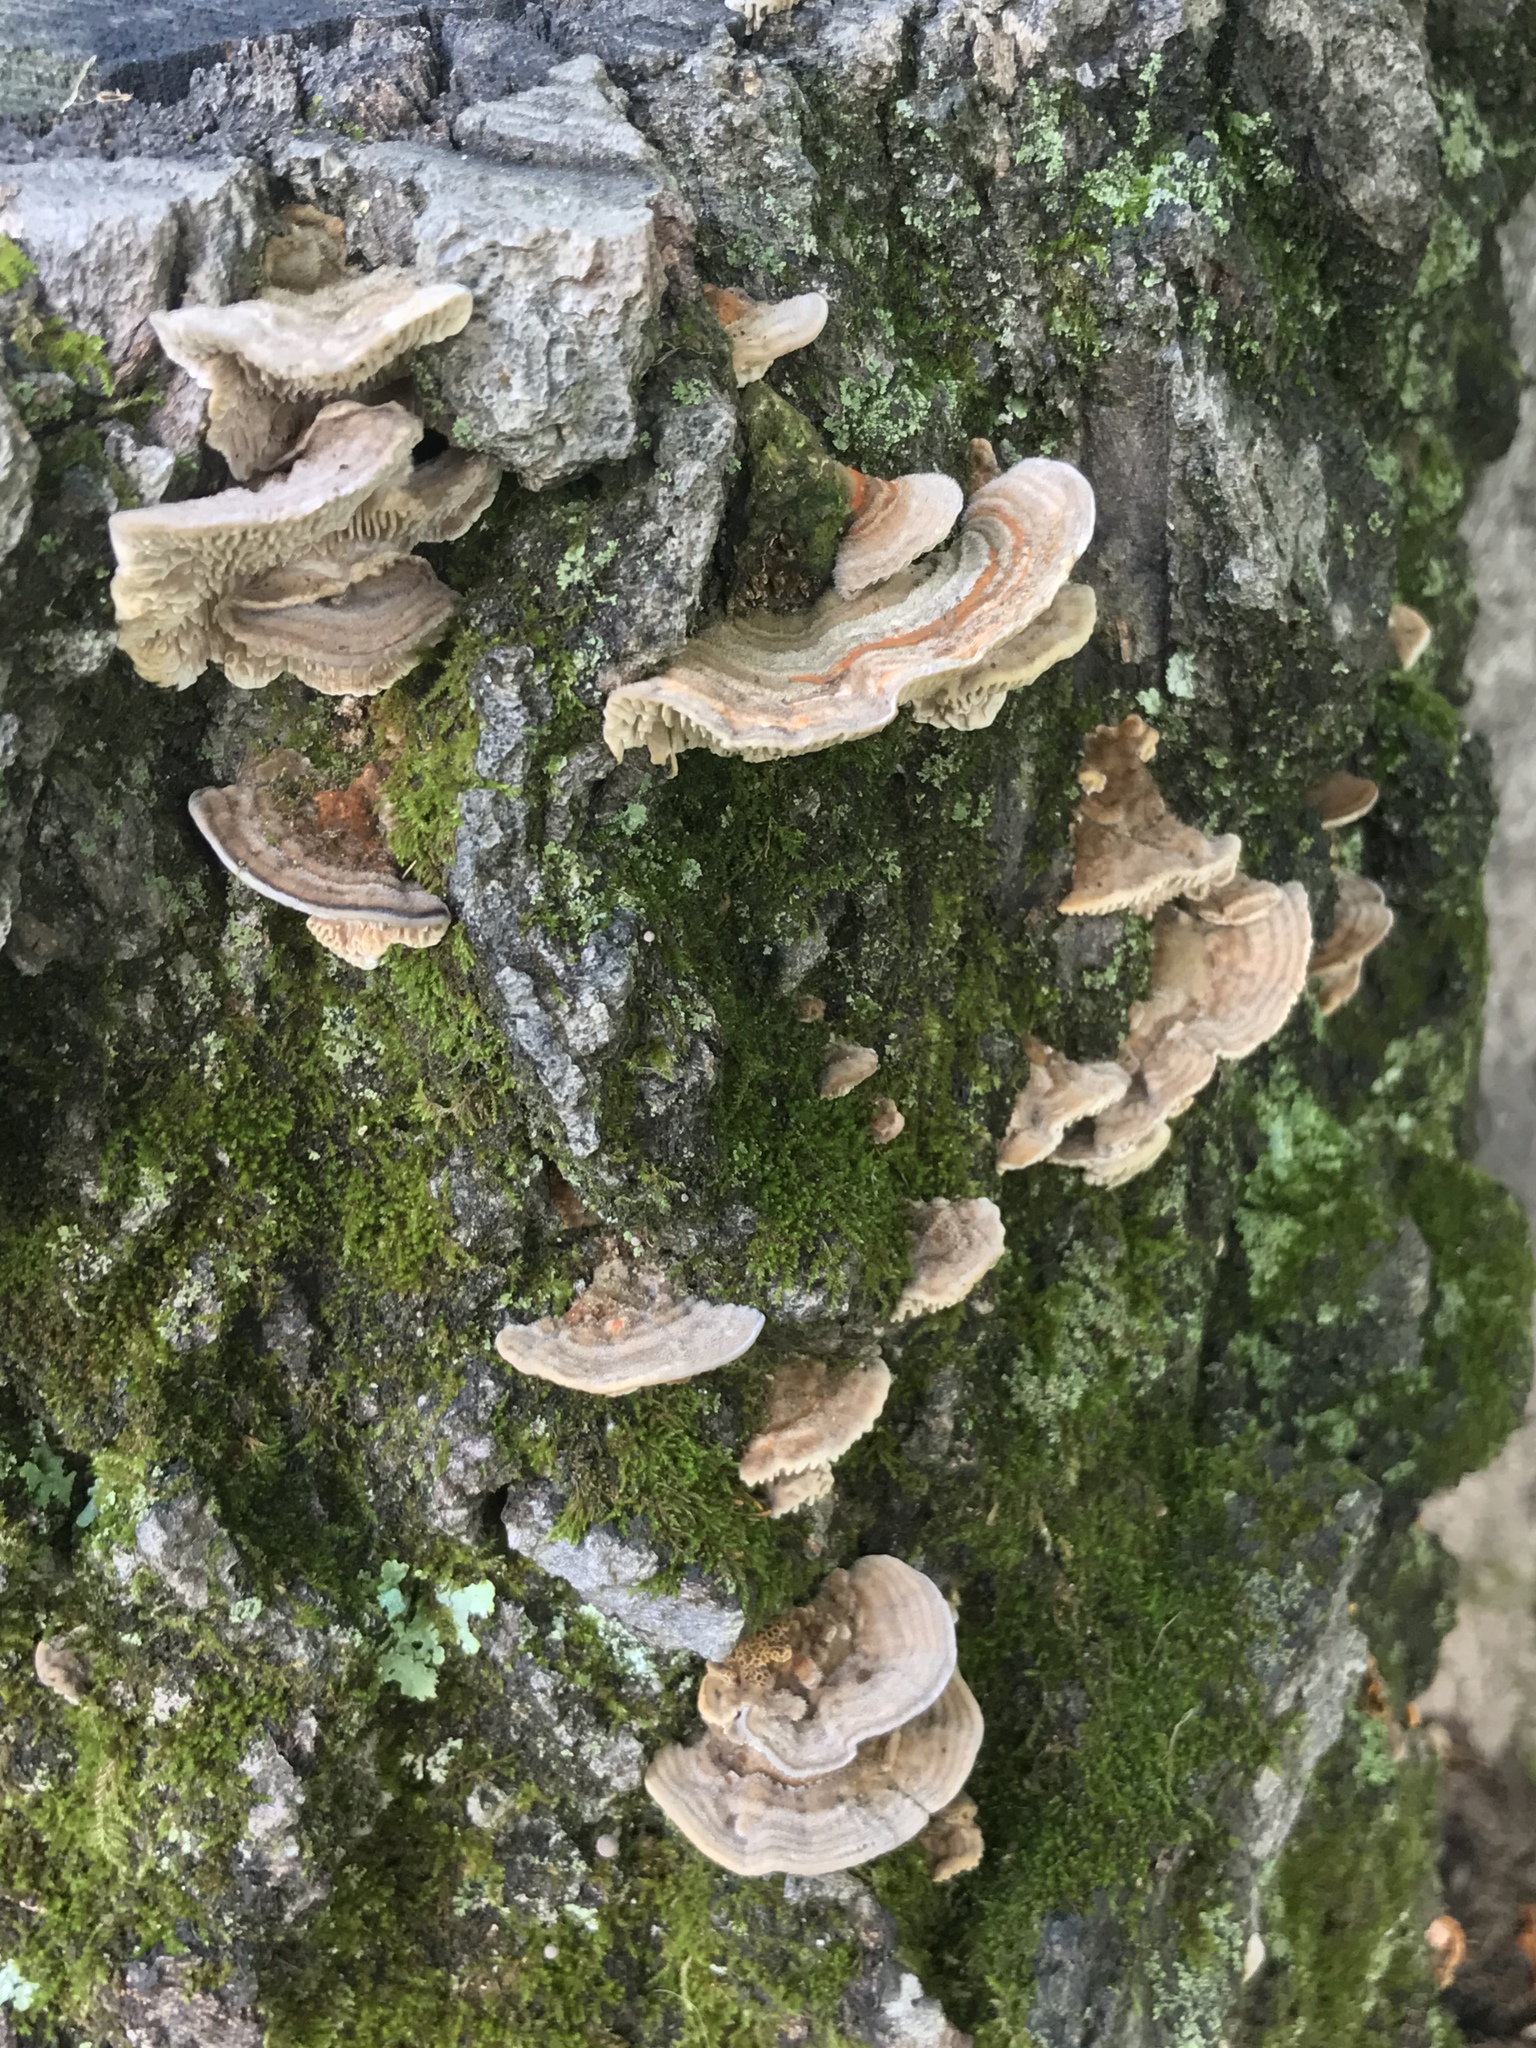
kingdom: Fungi
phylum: Basidiomycota
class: Agaricomycetes
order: Polyporales
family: Polyporaceae
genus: Lenzites
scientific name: Lenzites betulinus
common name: Birch mazegill
